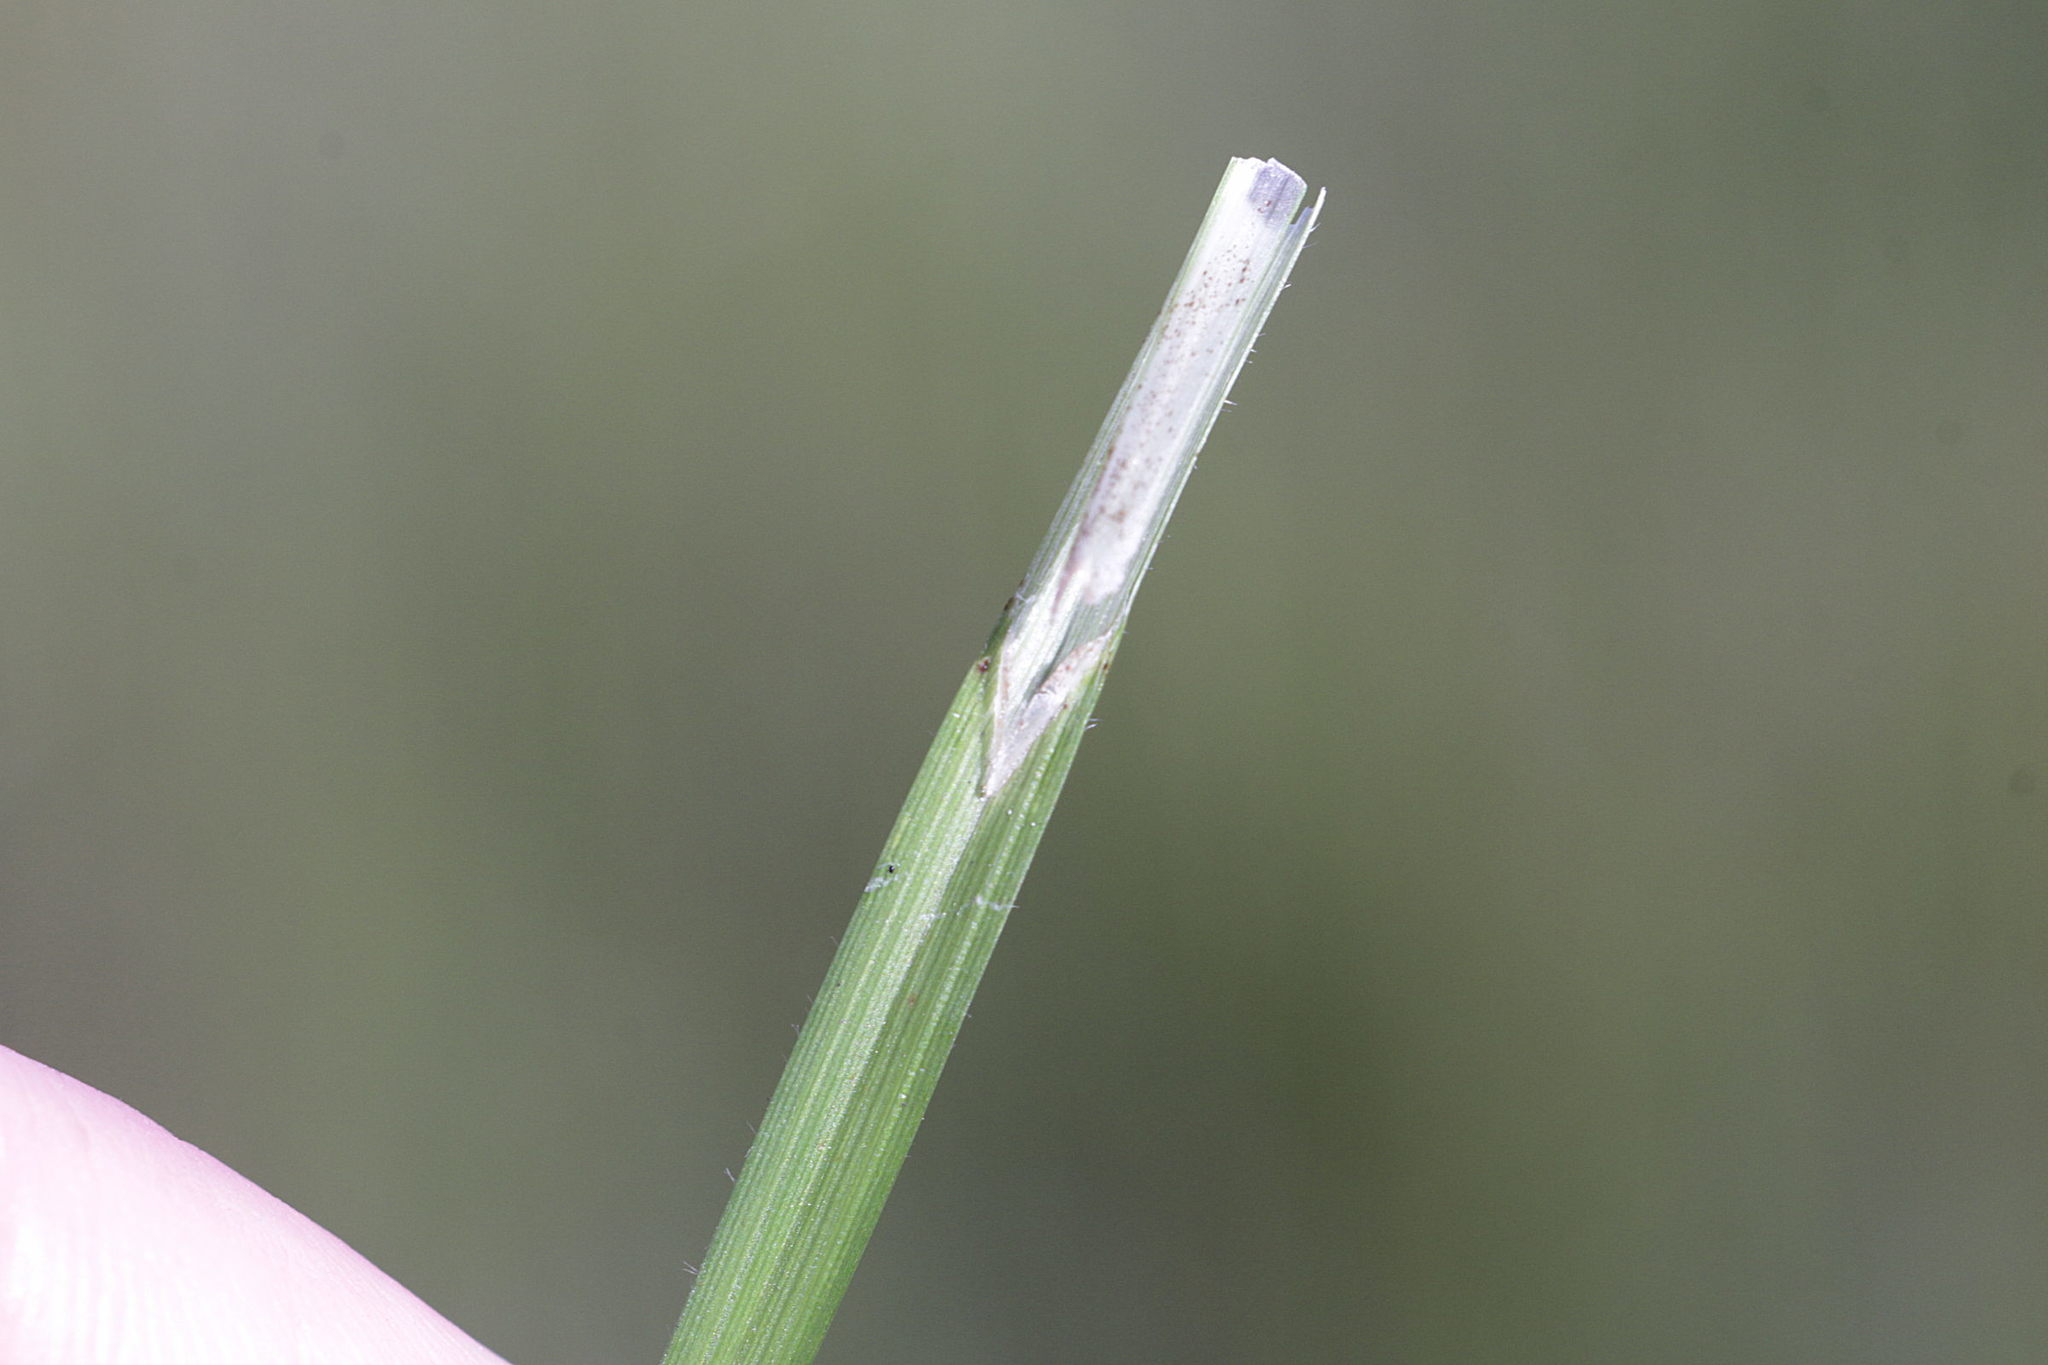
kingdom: Plantae
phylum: Tracheophyta
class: Liliopsida
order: Poales
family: Cyperaceae
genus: Carex
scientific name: Carex pallescens
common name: Pale sedge
